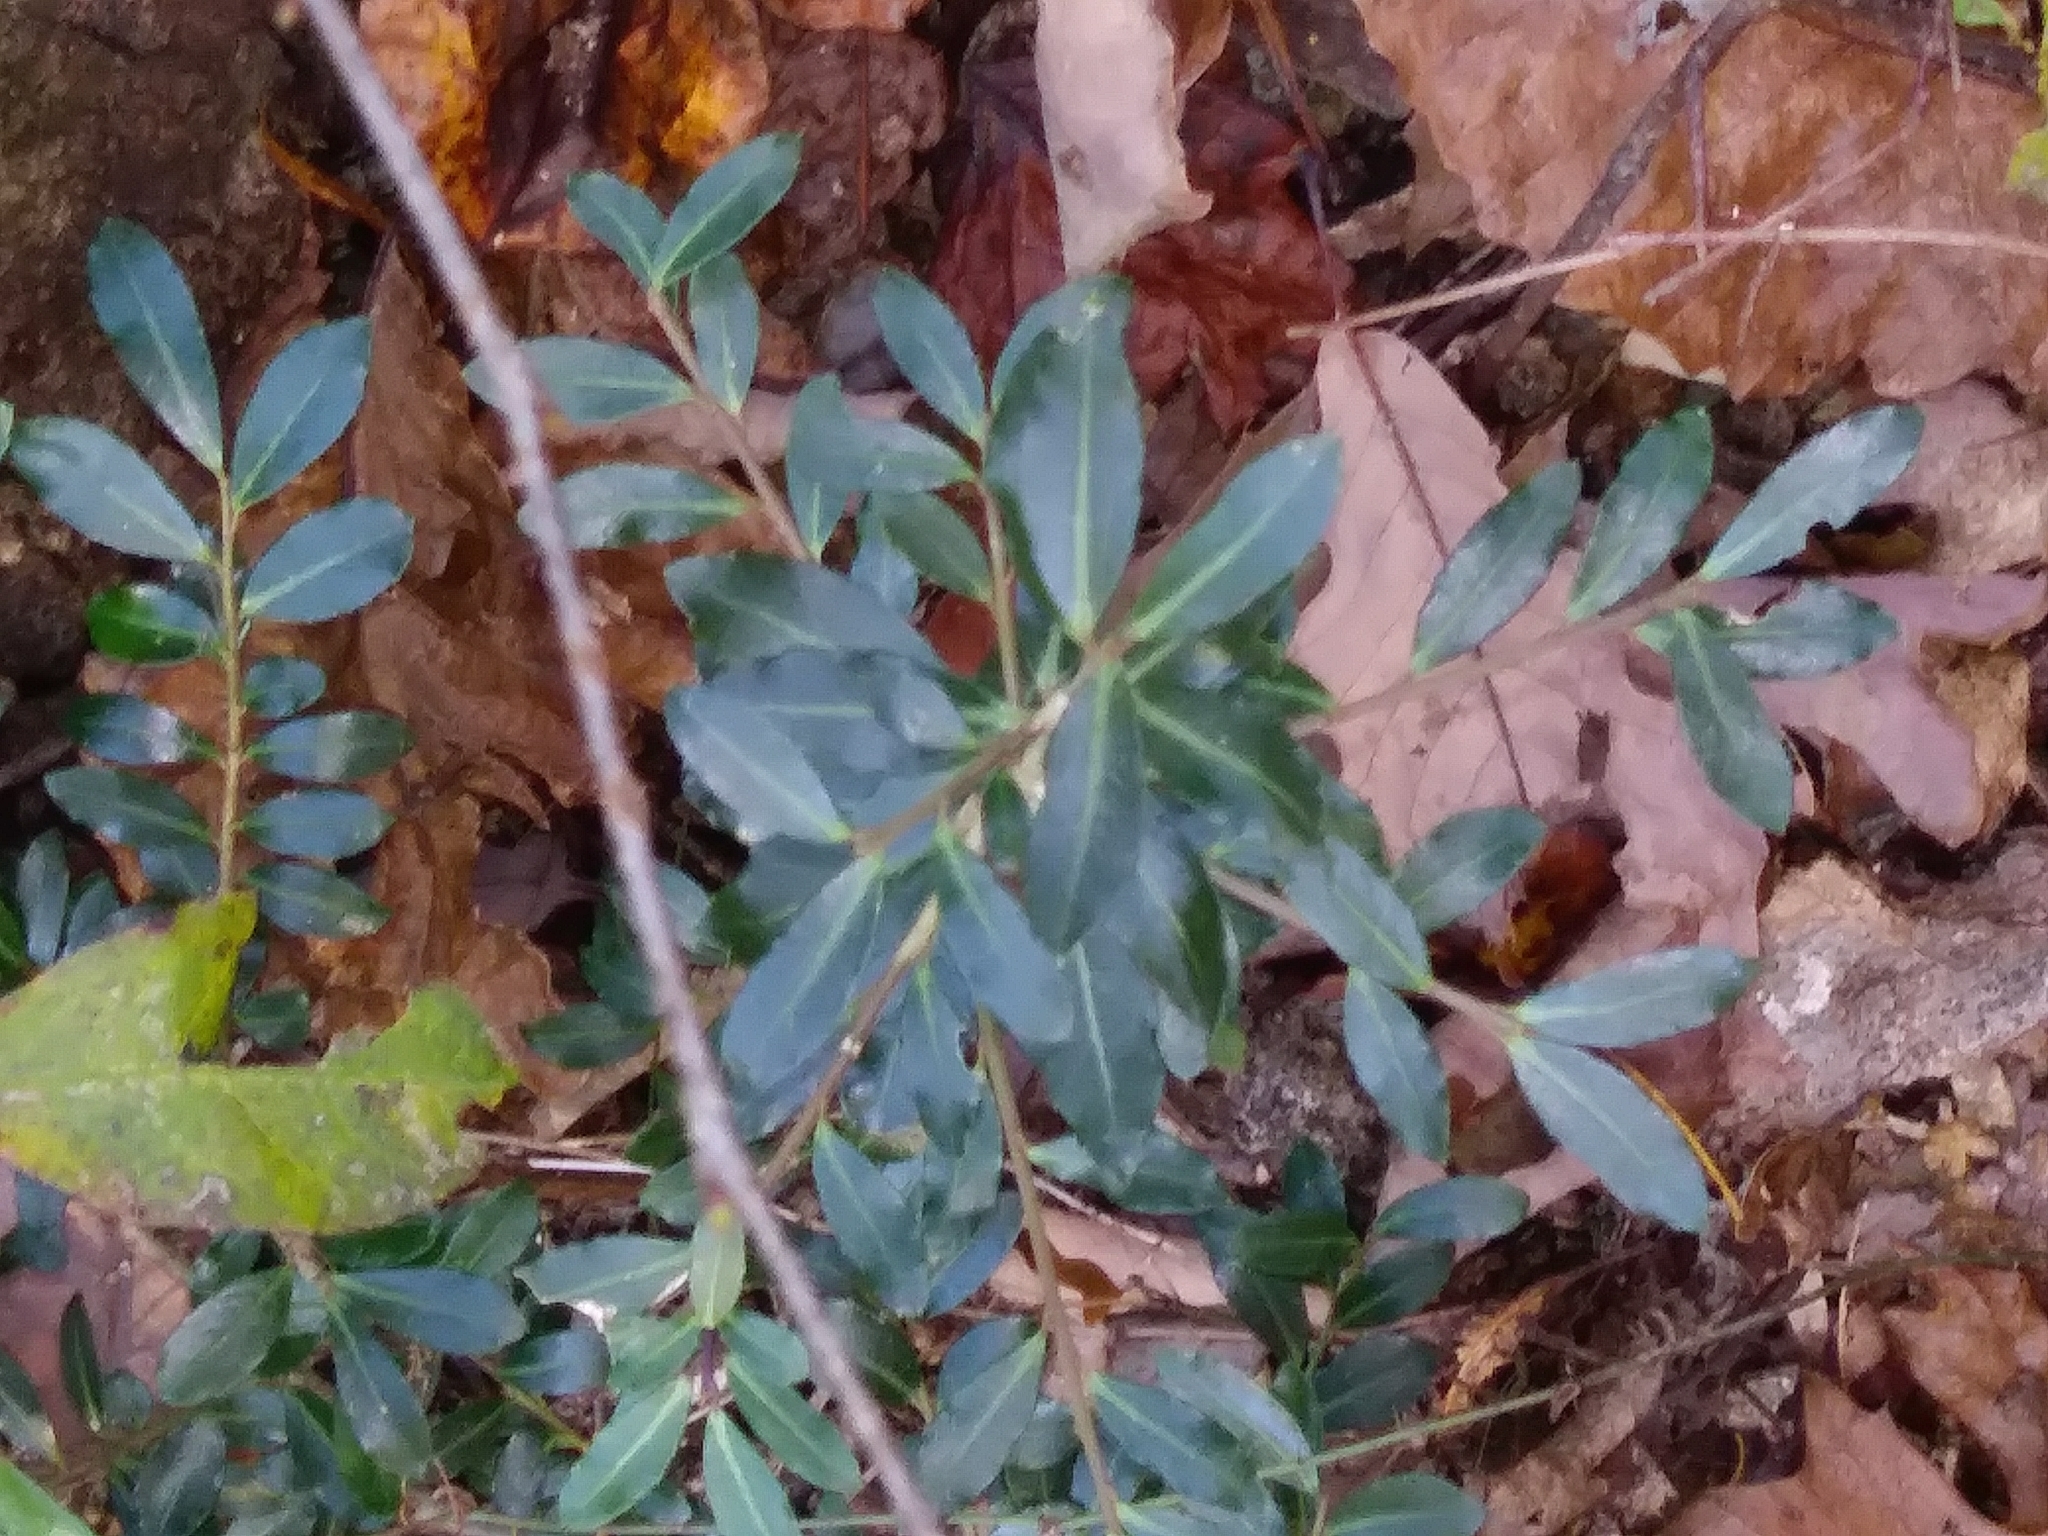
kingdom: Plantae
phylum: Tracheophyta
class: Magnoliopsida
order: Aquifoliales
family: Aquifoliaceae
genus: Ilex
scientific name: Ilex crenata
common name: Japanese holly
